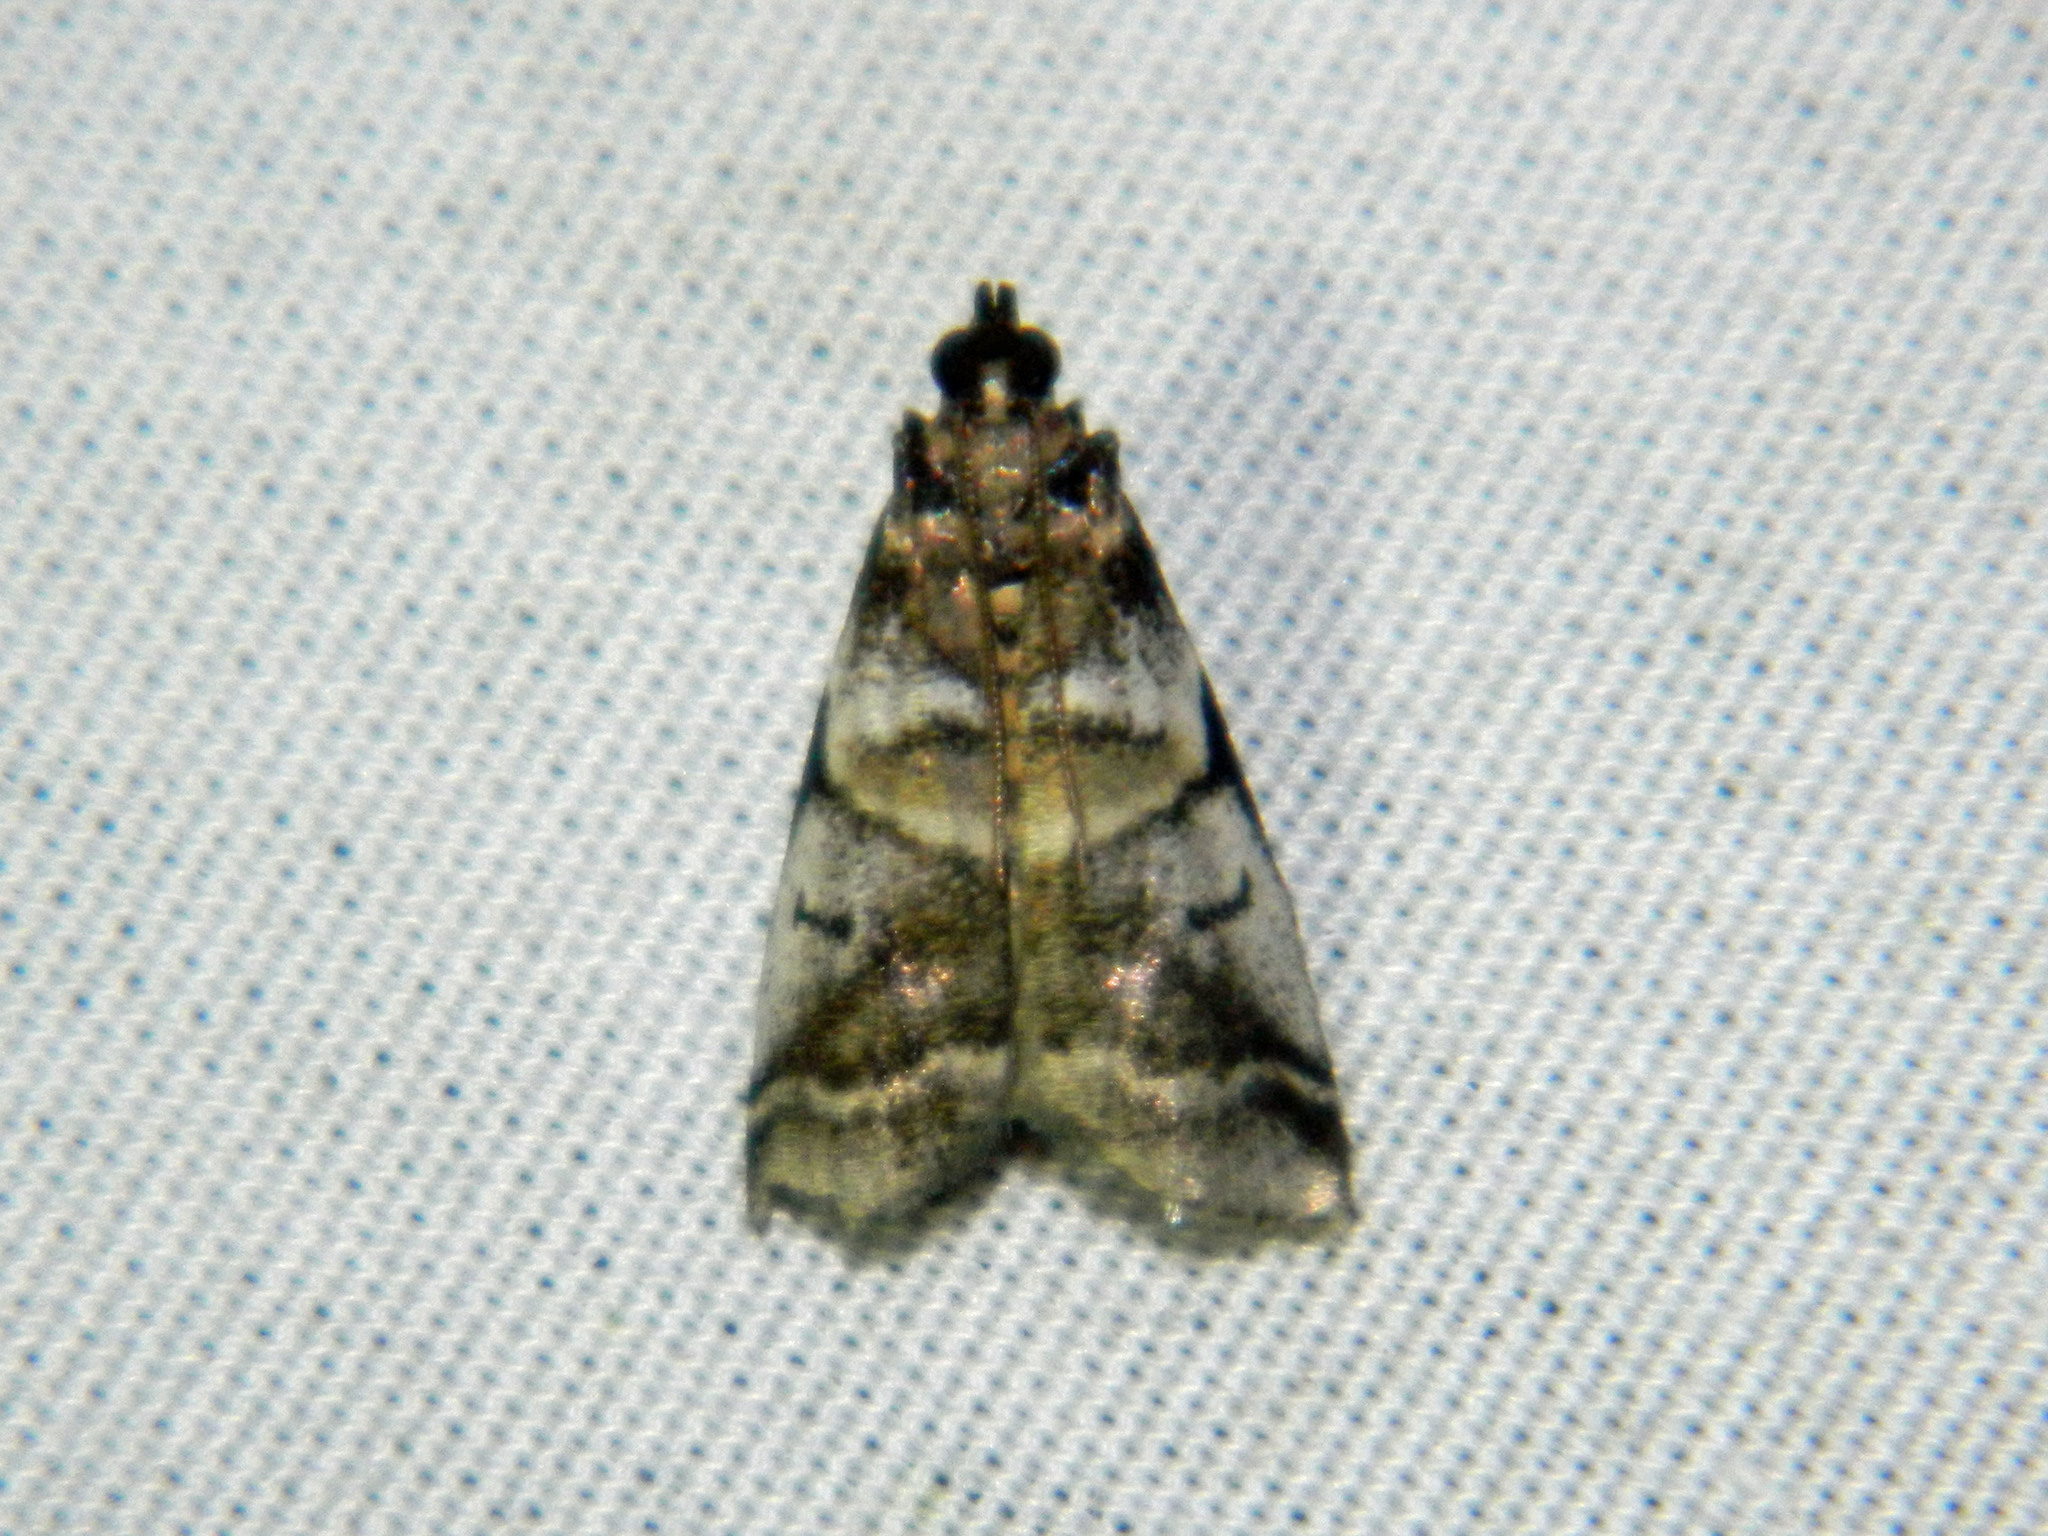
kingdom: Animalia
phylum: Arthropoda
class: Insecta
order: Lepidoptera
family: Pyralidae
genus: Acrobasis
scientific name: Acrobasis indigenella
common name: Leaf crumpler moth
